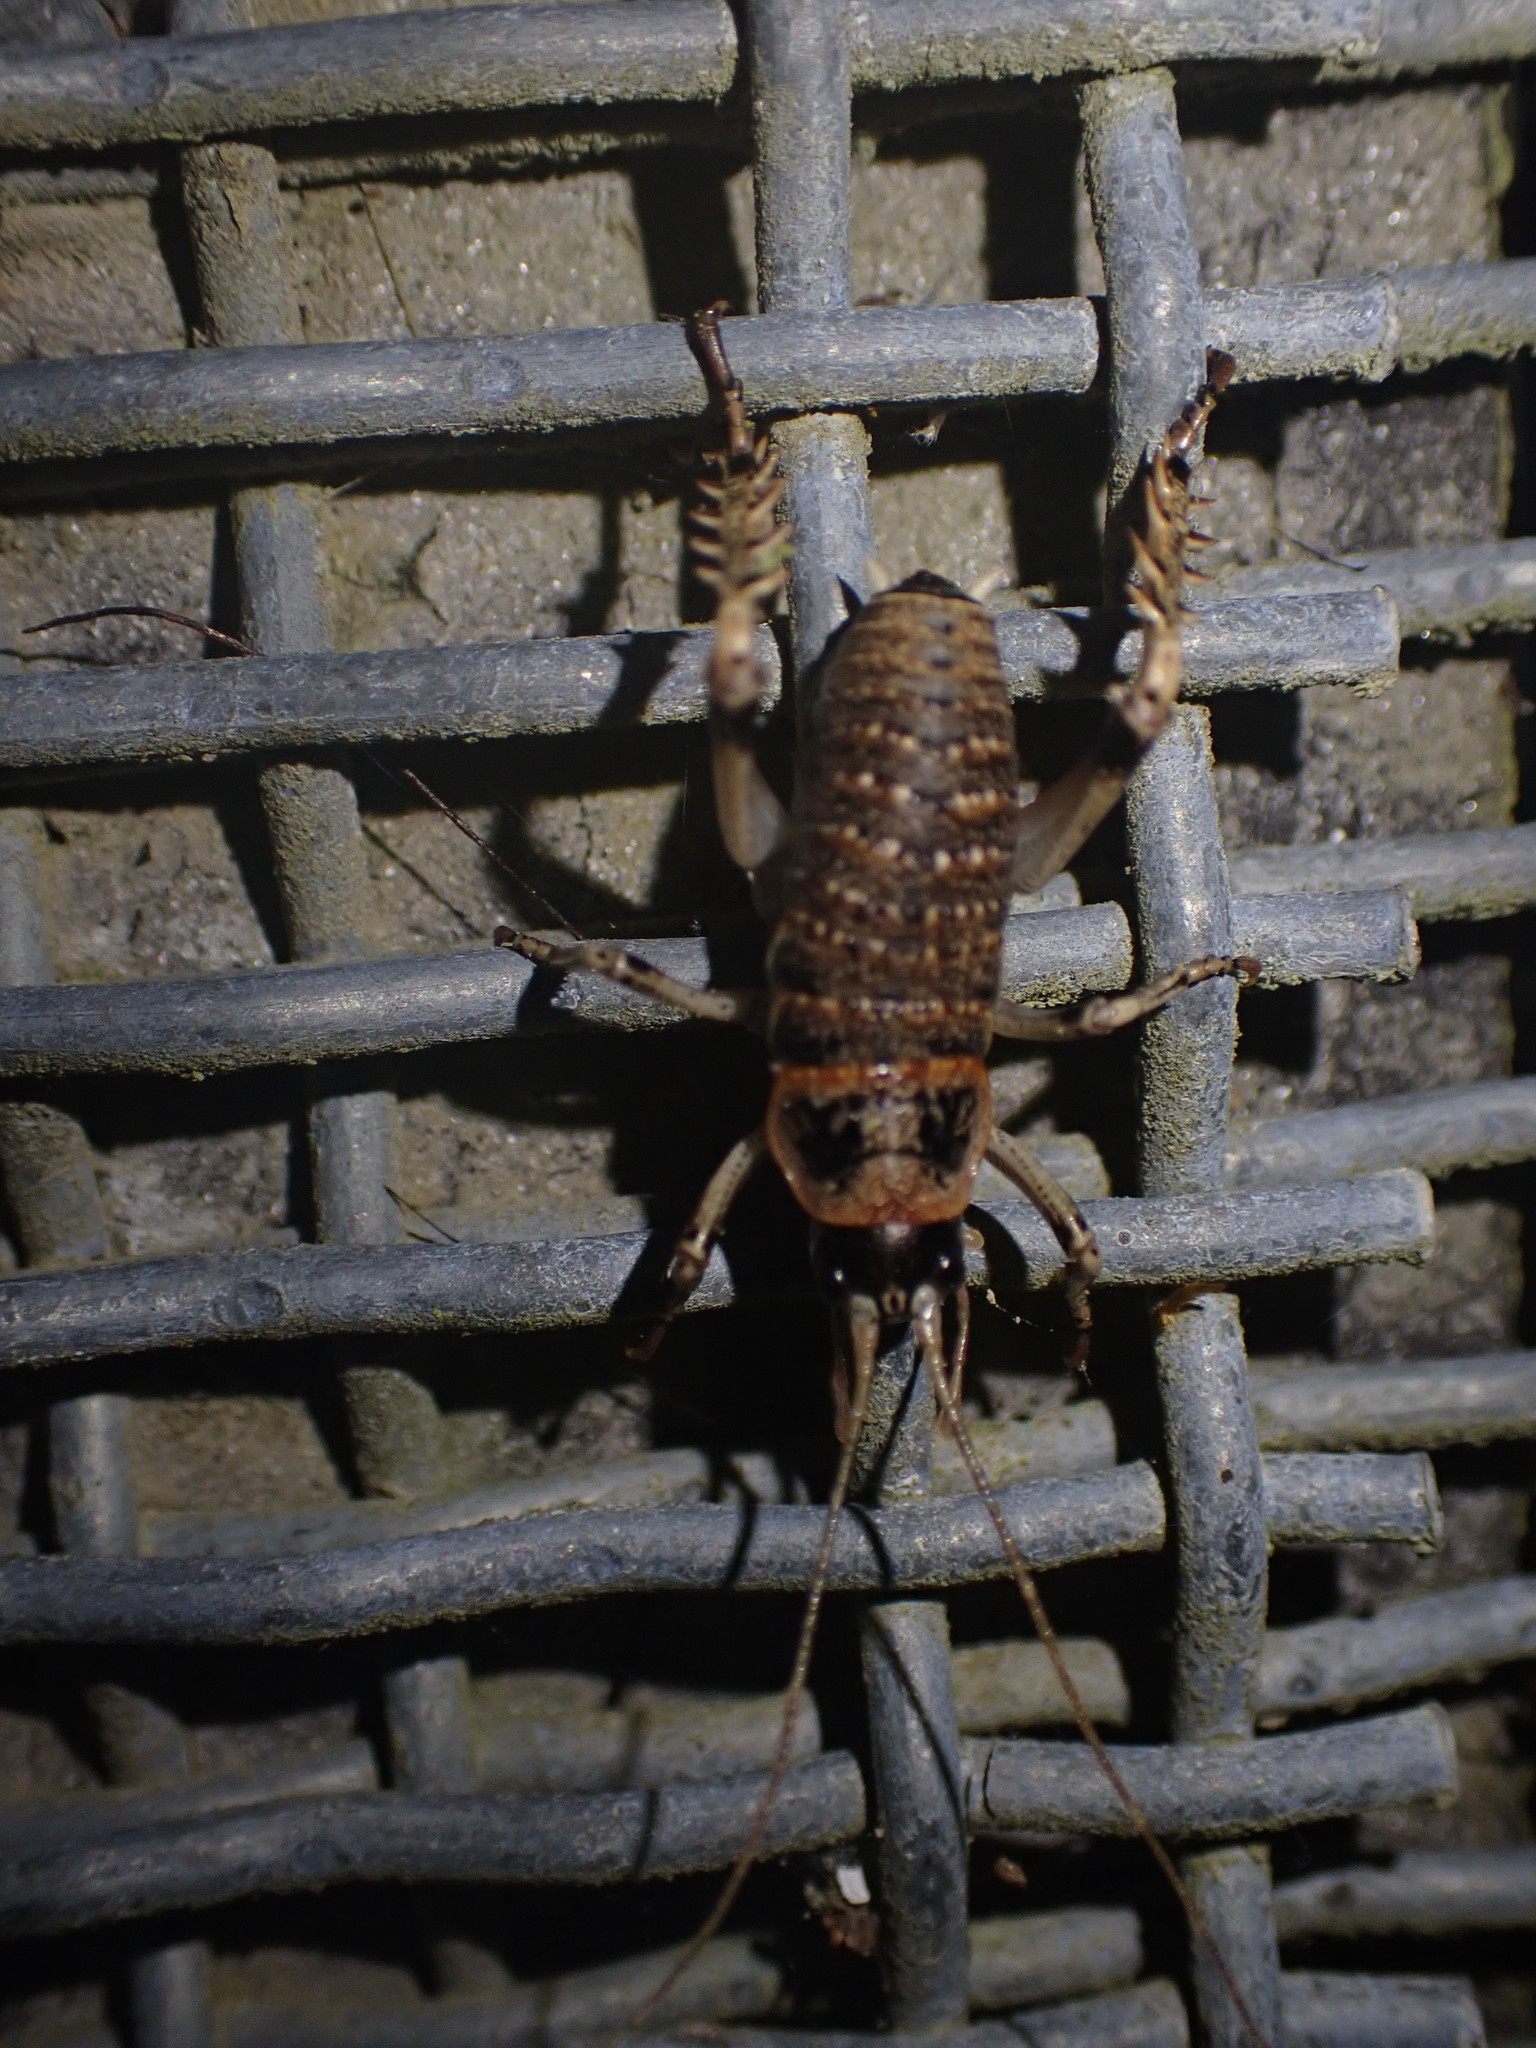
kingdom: Animalia
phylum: Arthropoda
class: Insecta
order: Orthoptera
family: Anostostomatidae
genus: Deinacrida
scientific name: Deinacrida rugosa
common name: Stephens island weta
